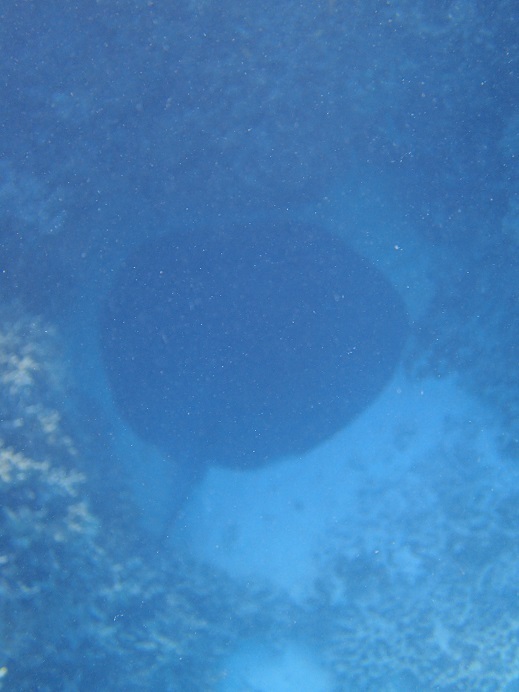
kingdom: Animalia
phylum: Chordata
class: Elasmobranchii
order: Myliobatiformes
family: Dasyatidae
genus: Taeniurops
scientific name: Taeniurops meyeni
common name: Black-blotched stingray
